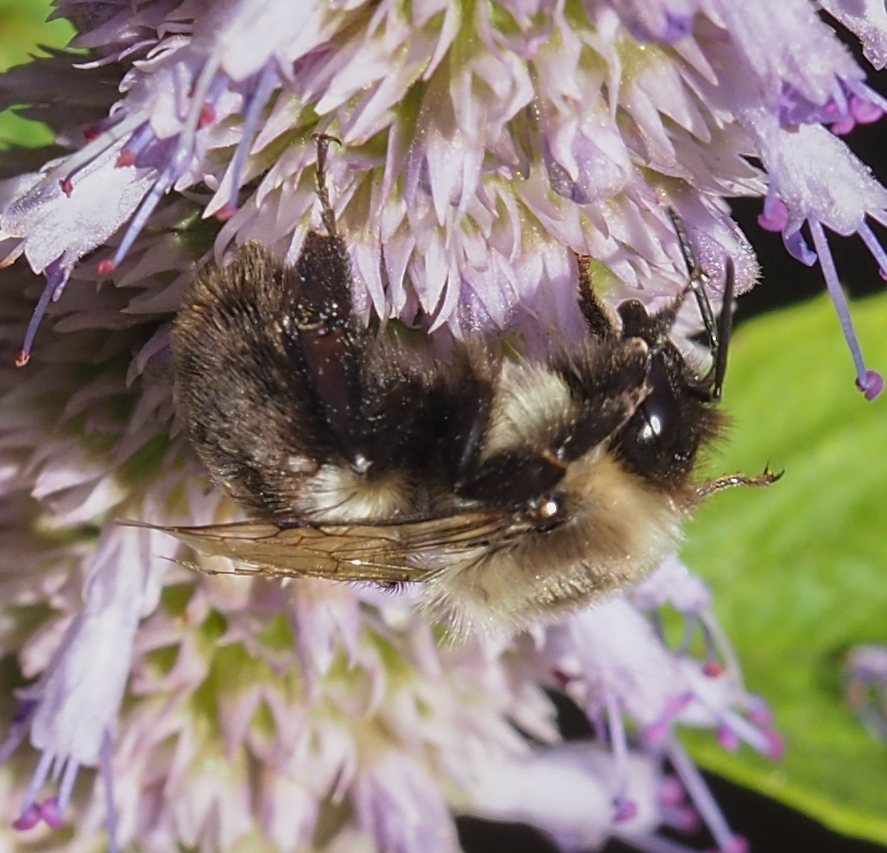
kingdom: Animalia
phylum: Arthropoda
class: Insecta
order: Hymenoptera
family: Apidae
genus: Bombus
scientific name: Bombus impatiens
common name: Common eastern bumble bee
